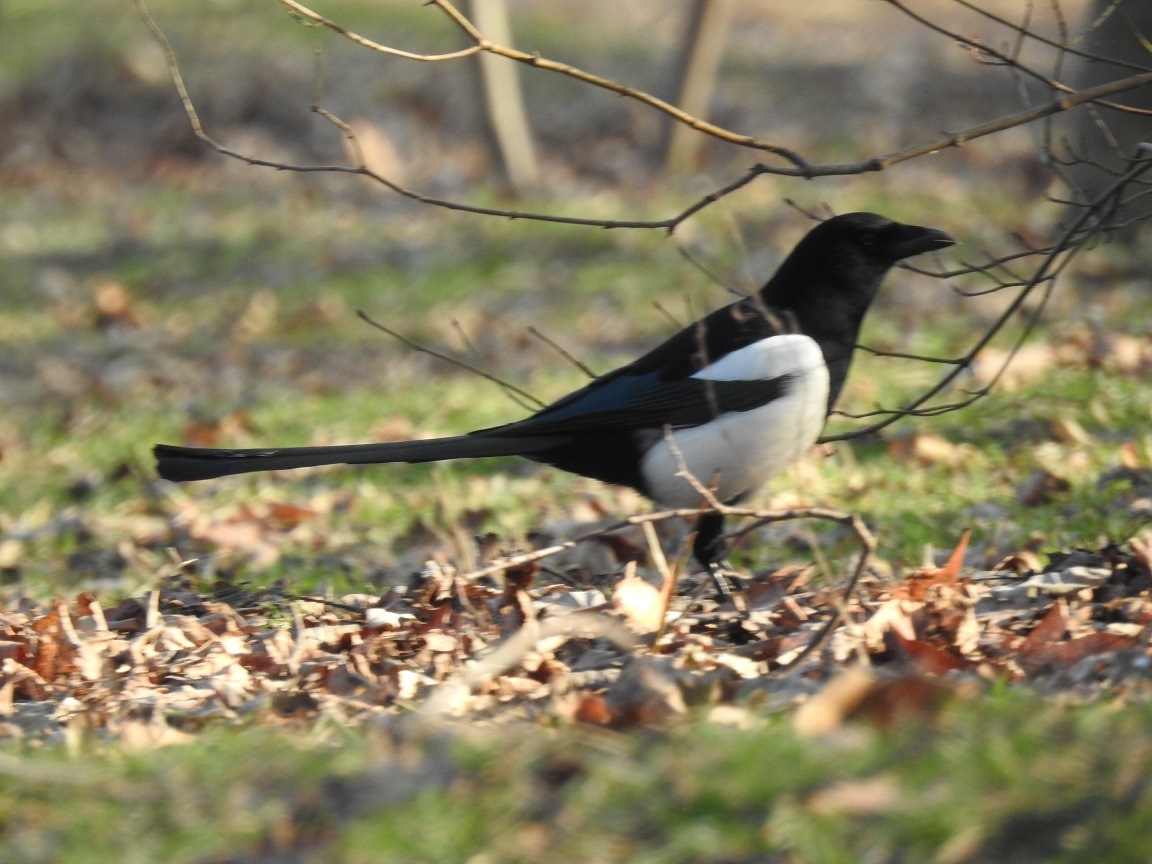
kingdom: Animalia
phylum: Chordata
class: Aves
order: Passeriformes
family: Corvidae
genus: Pica
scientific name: Pica pica
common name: Eurasian magpie
